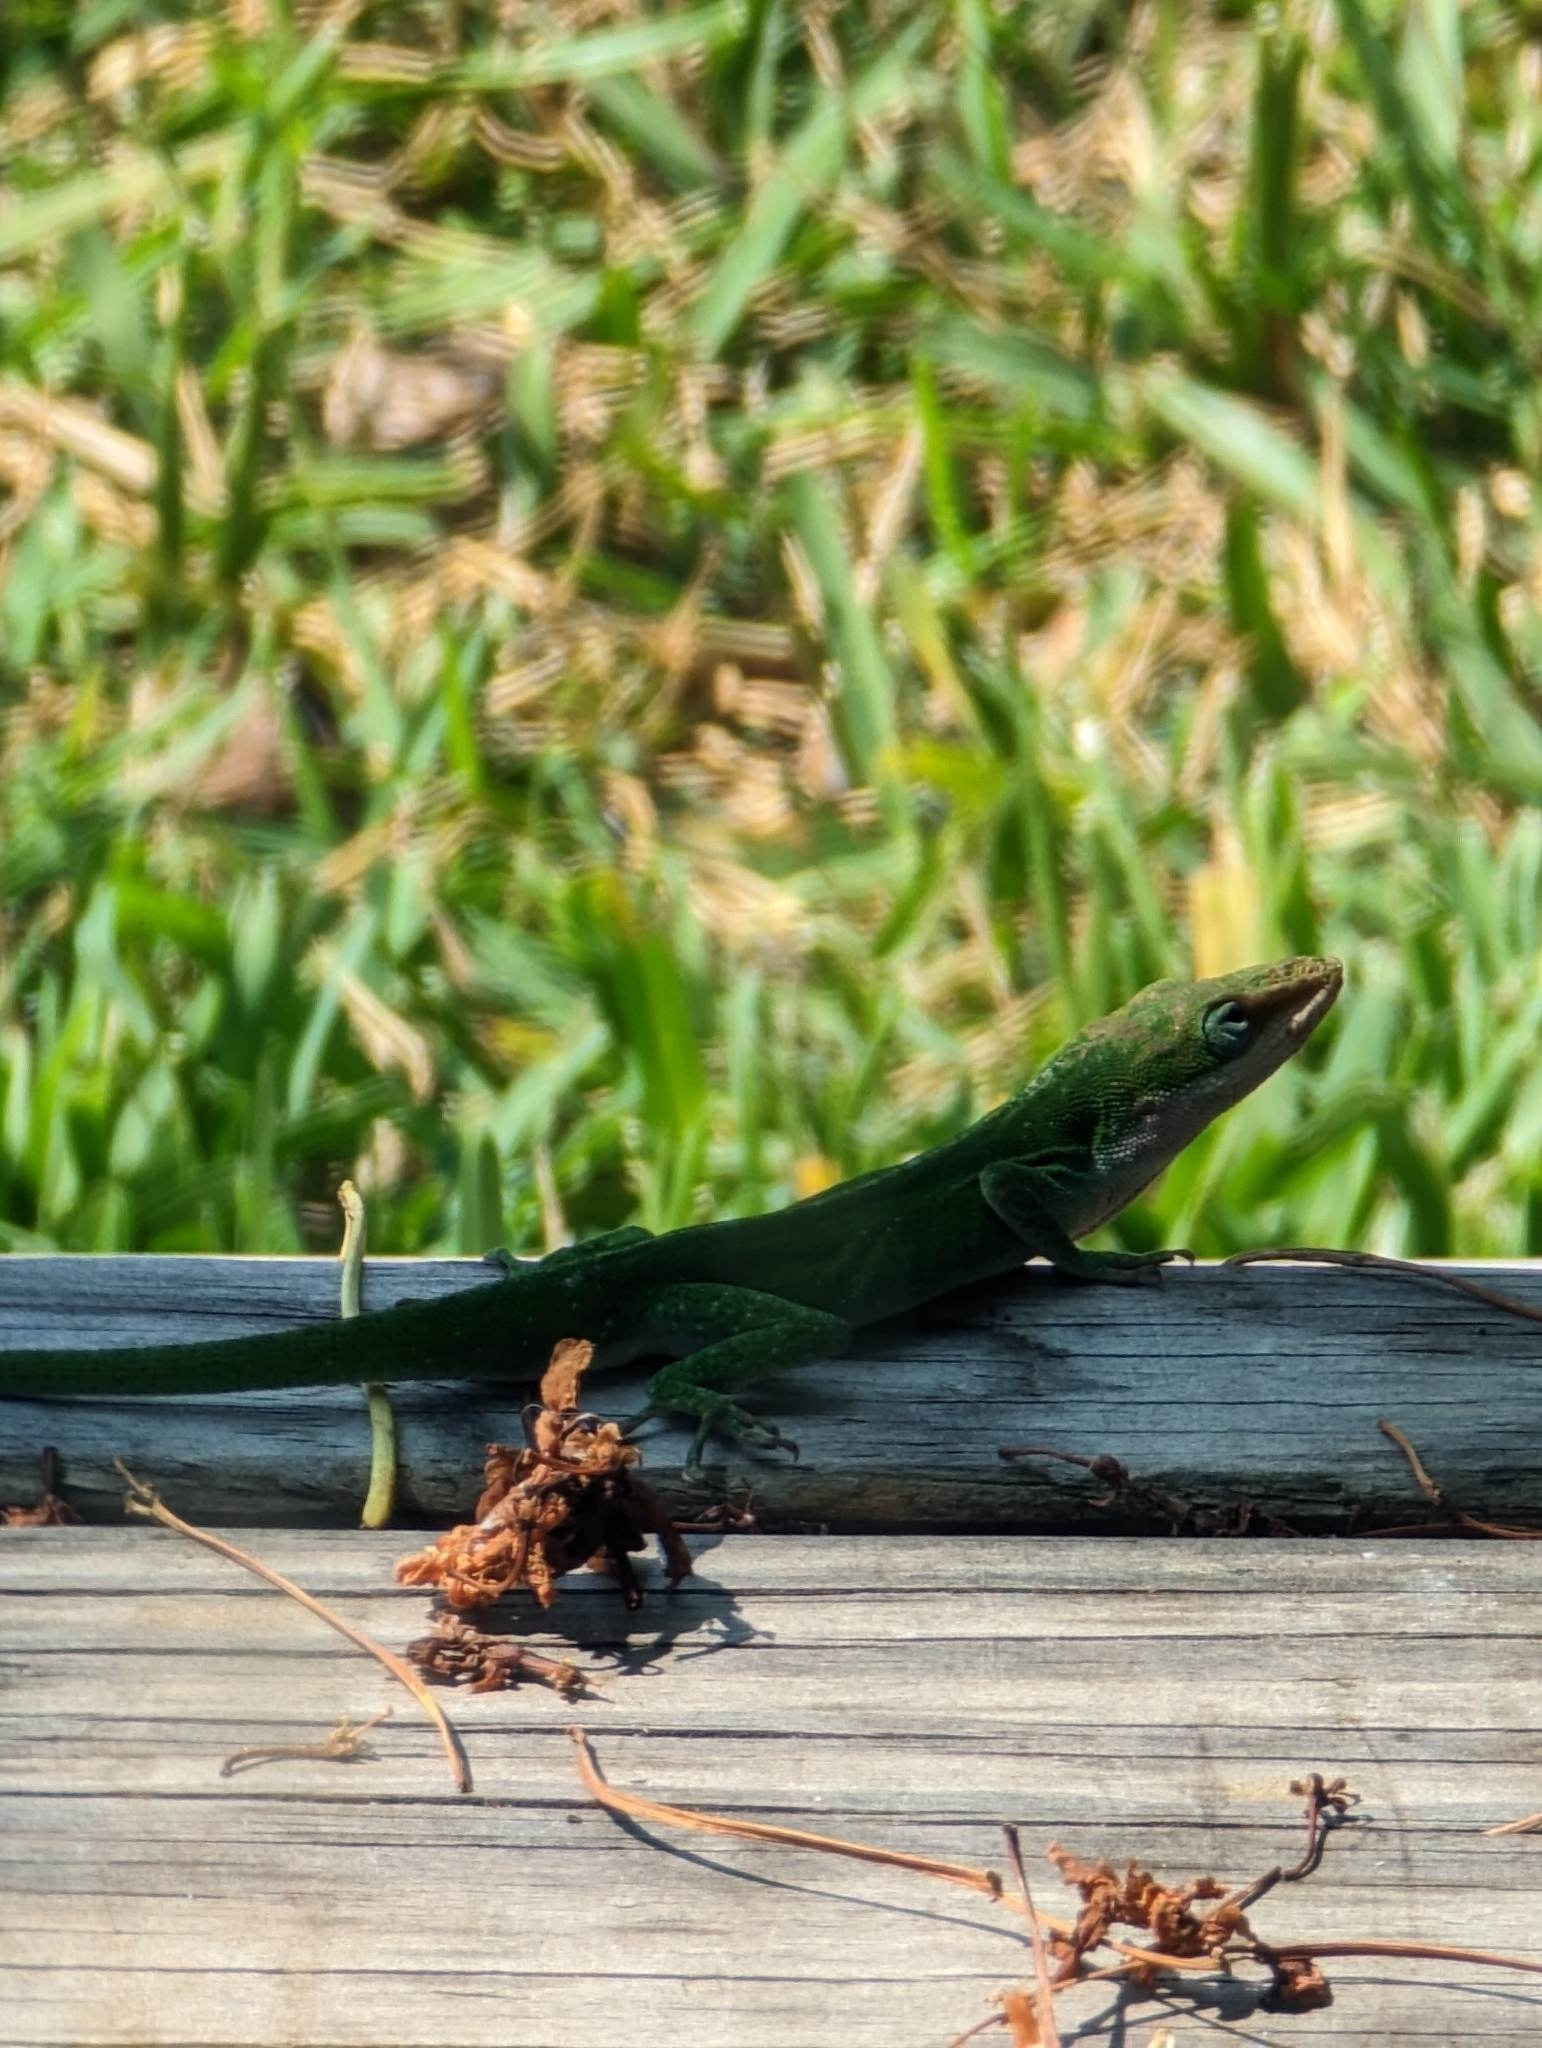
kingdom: Animalia
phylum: Chordata
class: Squamata
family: Dactyloidae
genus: Anolis
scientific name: Anolis carolinensis
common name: Green anole
